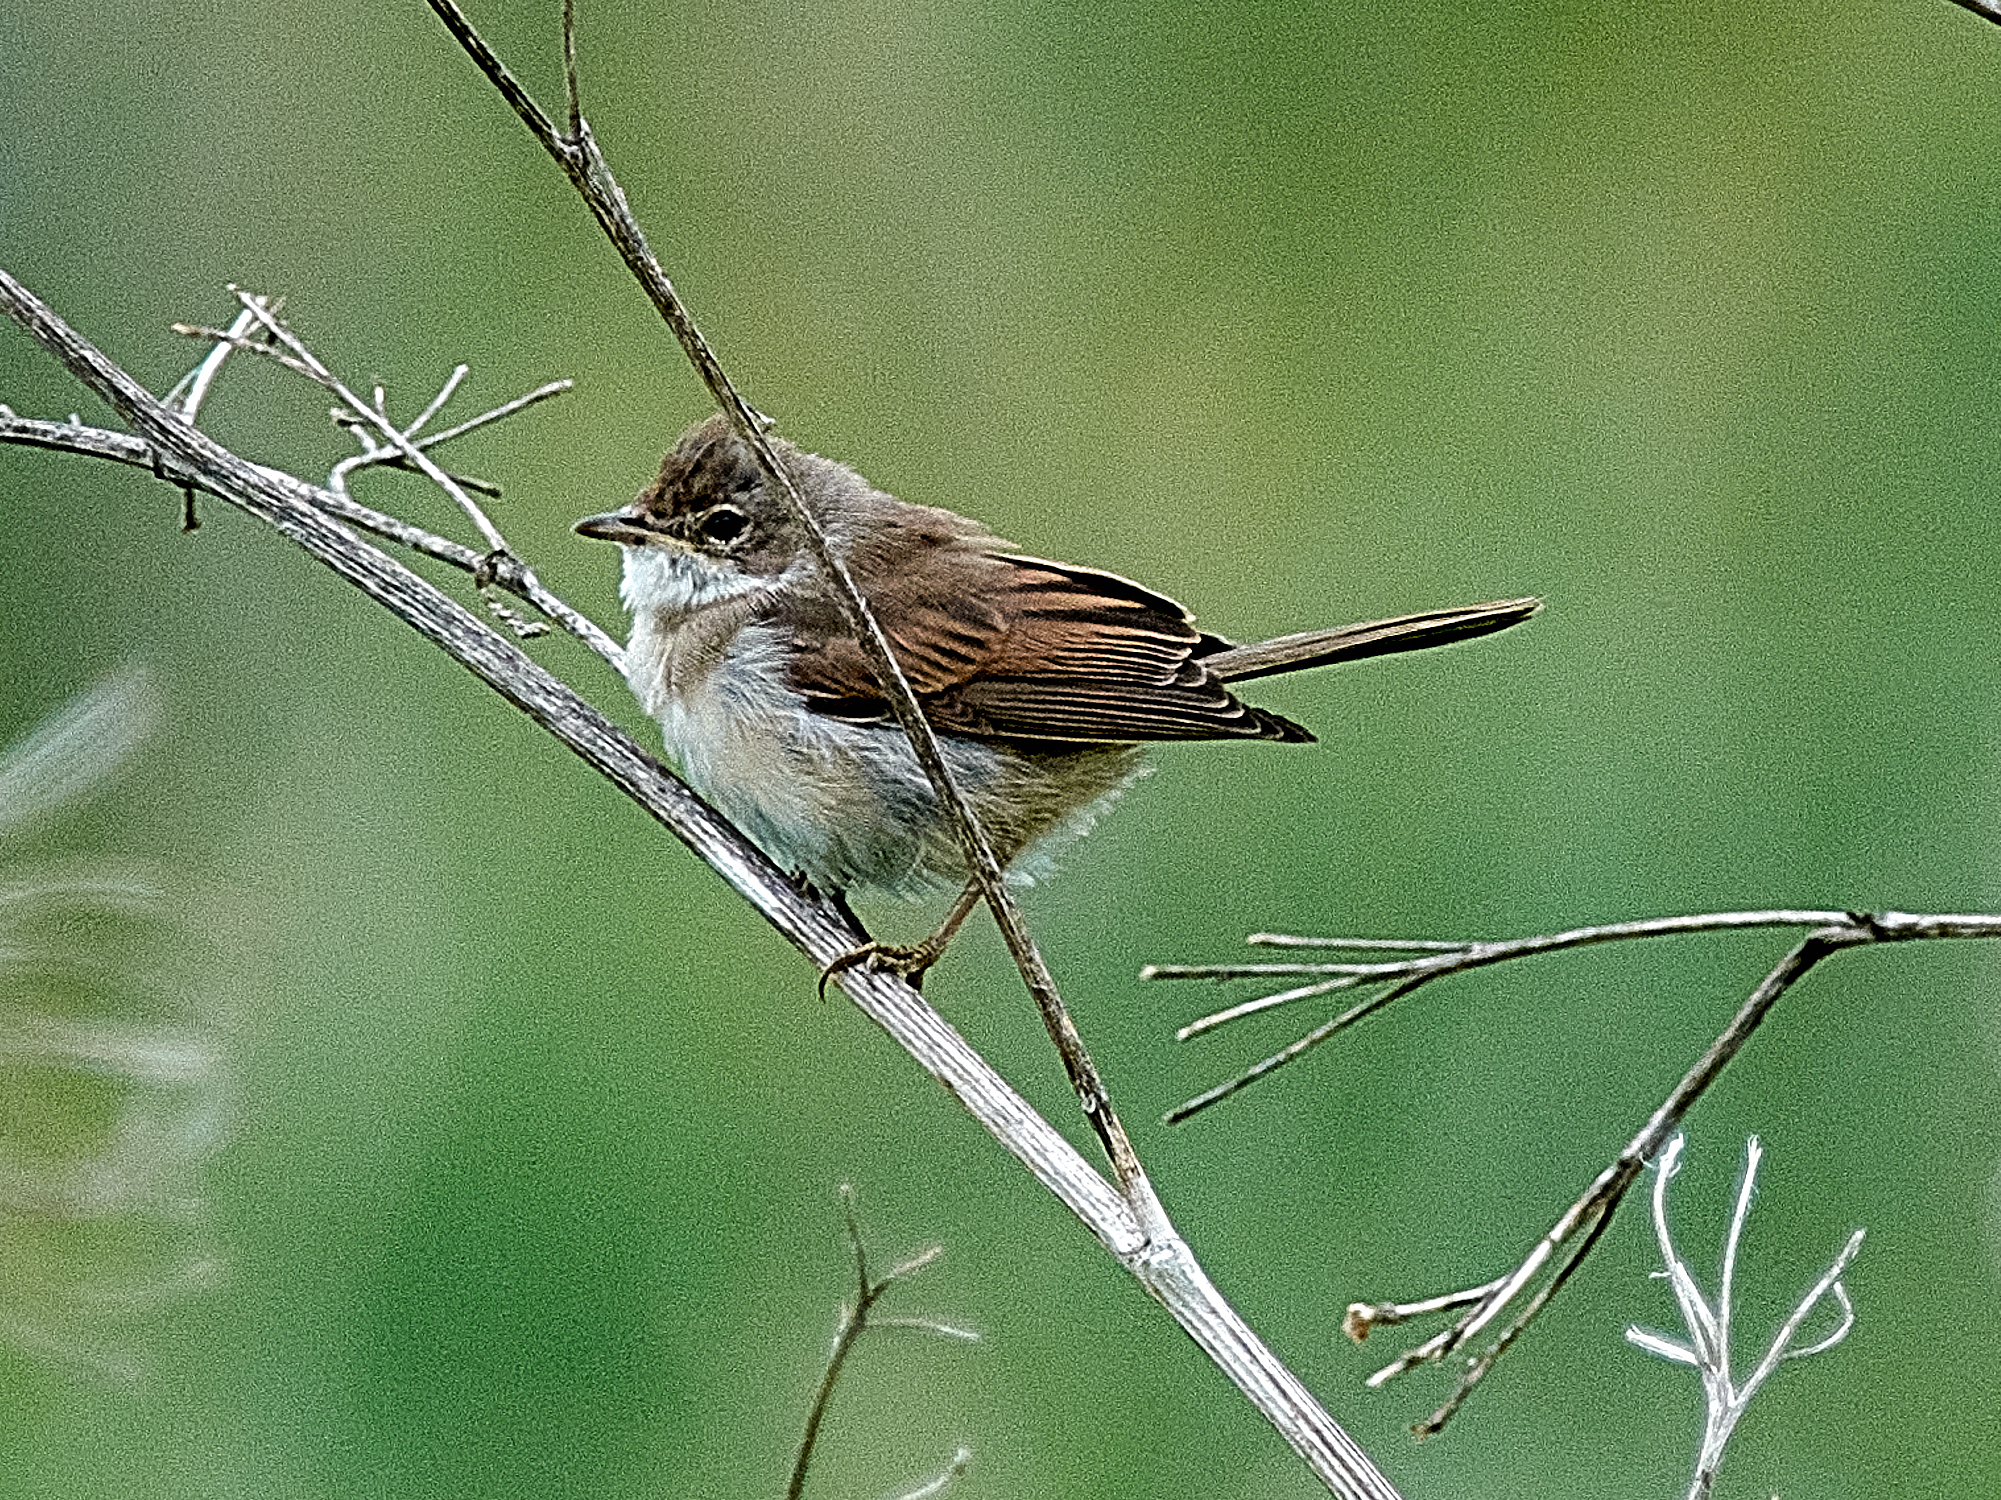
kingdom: Animalia
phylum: Chordata
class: Aves
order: Passeriformes
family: Sylviidae
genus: Sylvia
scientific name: Sylvia communis
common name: Common whitethroat
